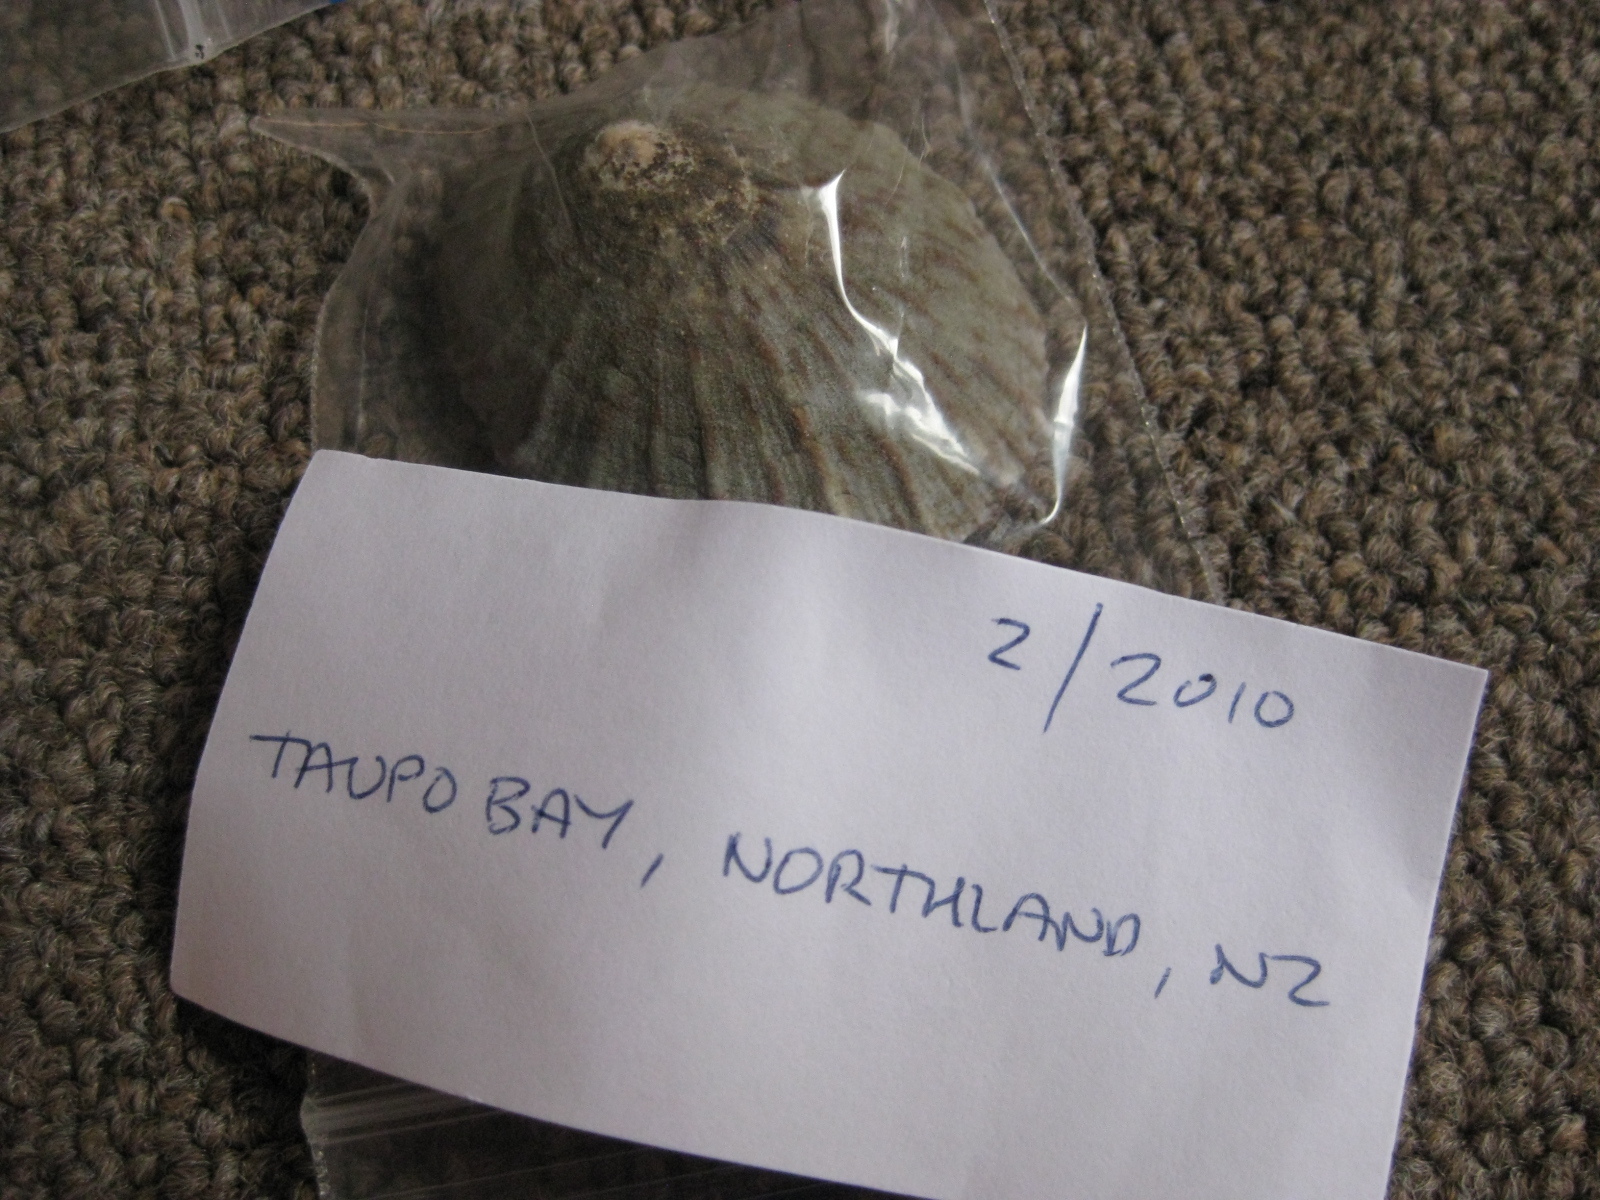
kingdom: Animalia
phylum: Mollusca
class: Gastropoda
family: Nacellidae
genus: Cellana
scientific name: Cellana radians
